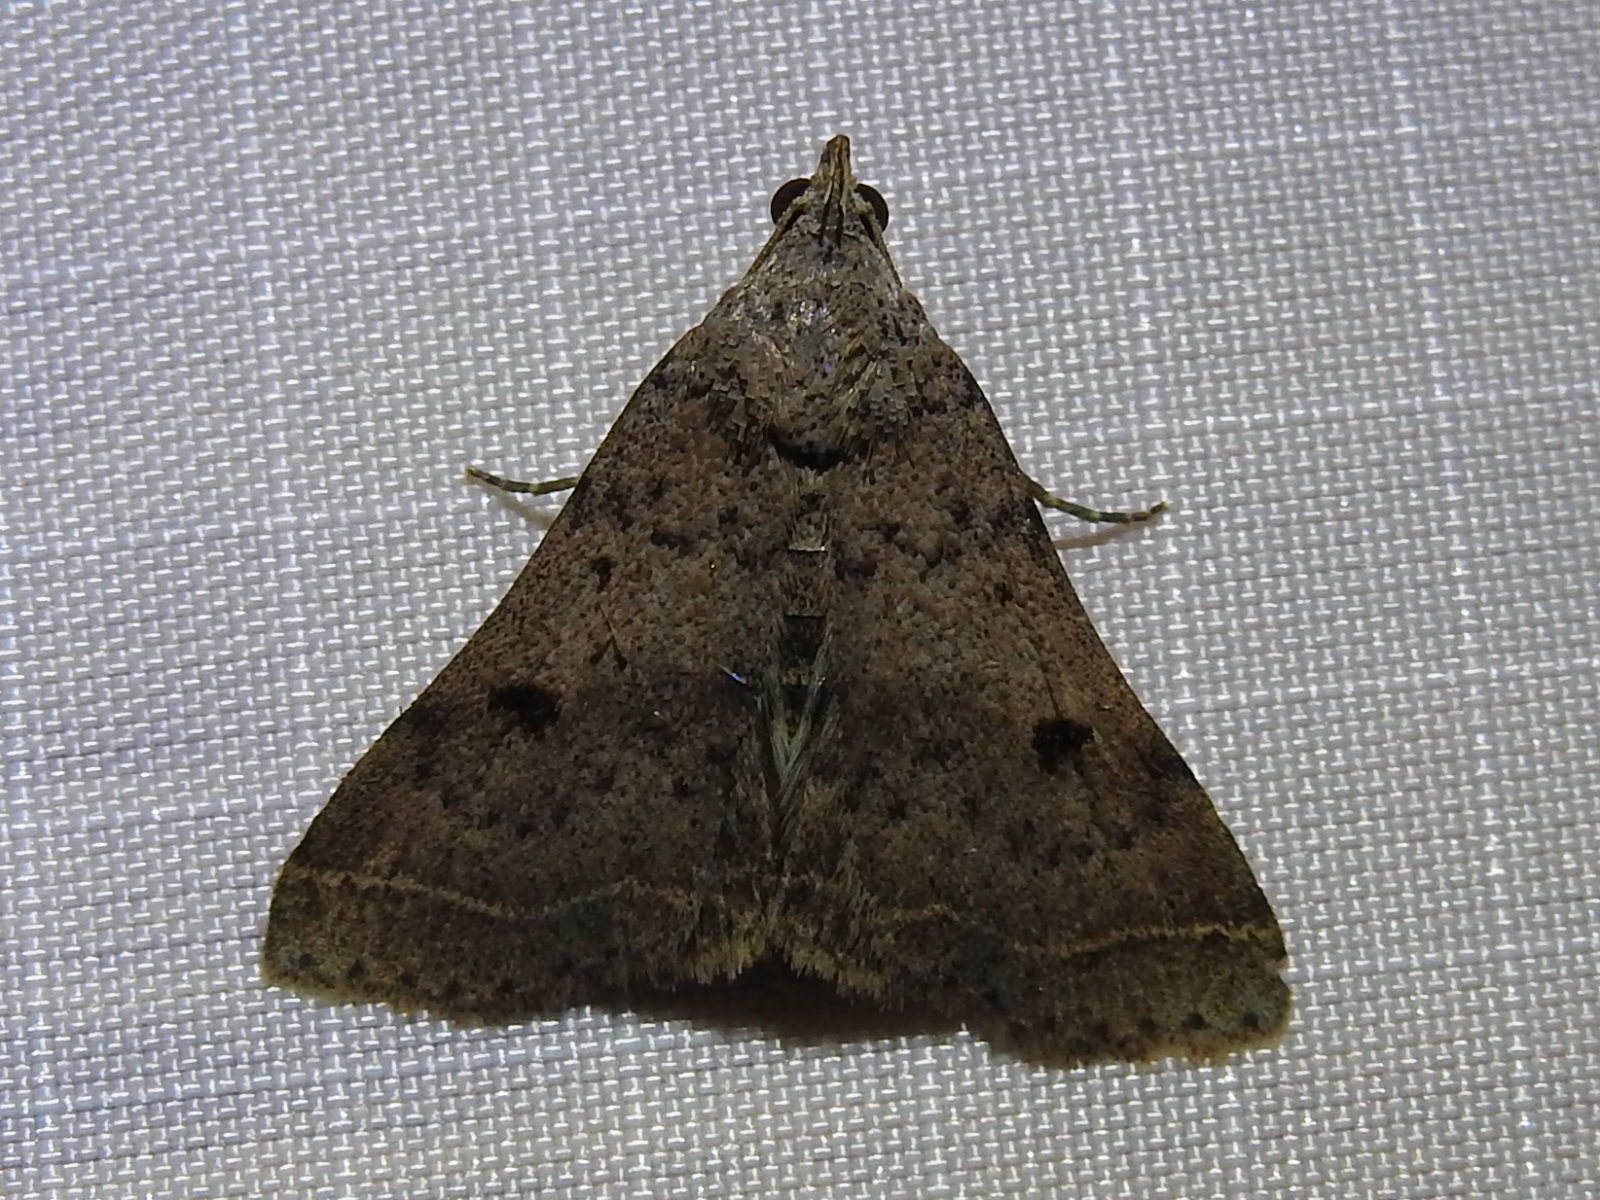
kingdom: Animalia
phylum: Arthropoda
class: Insecta
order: Lepidoptera
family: Erebidae
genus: Bleptina
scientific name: Bleptina caradrinalis
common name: Bent-winged owlet
